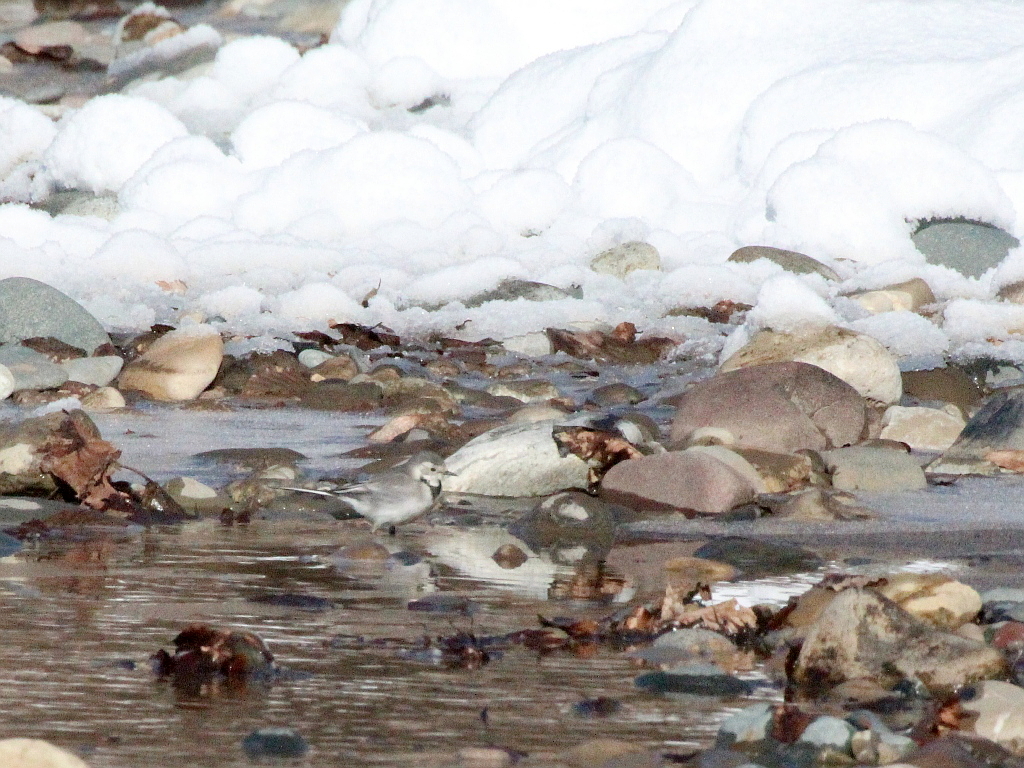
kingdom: Animalia
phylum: Chordata
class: Aves
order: Passeriformes
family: Motacillidae
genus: Motacilla
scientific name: Motacilla alba
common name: White wagtail
